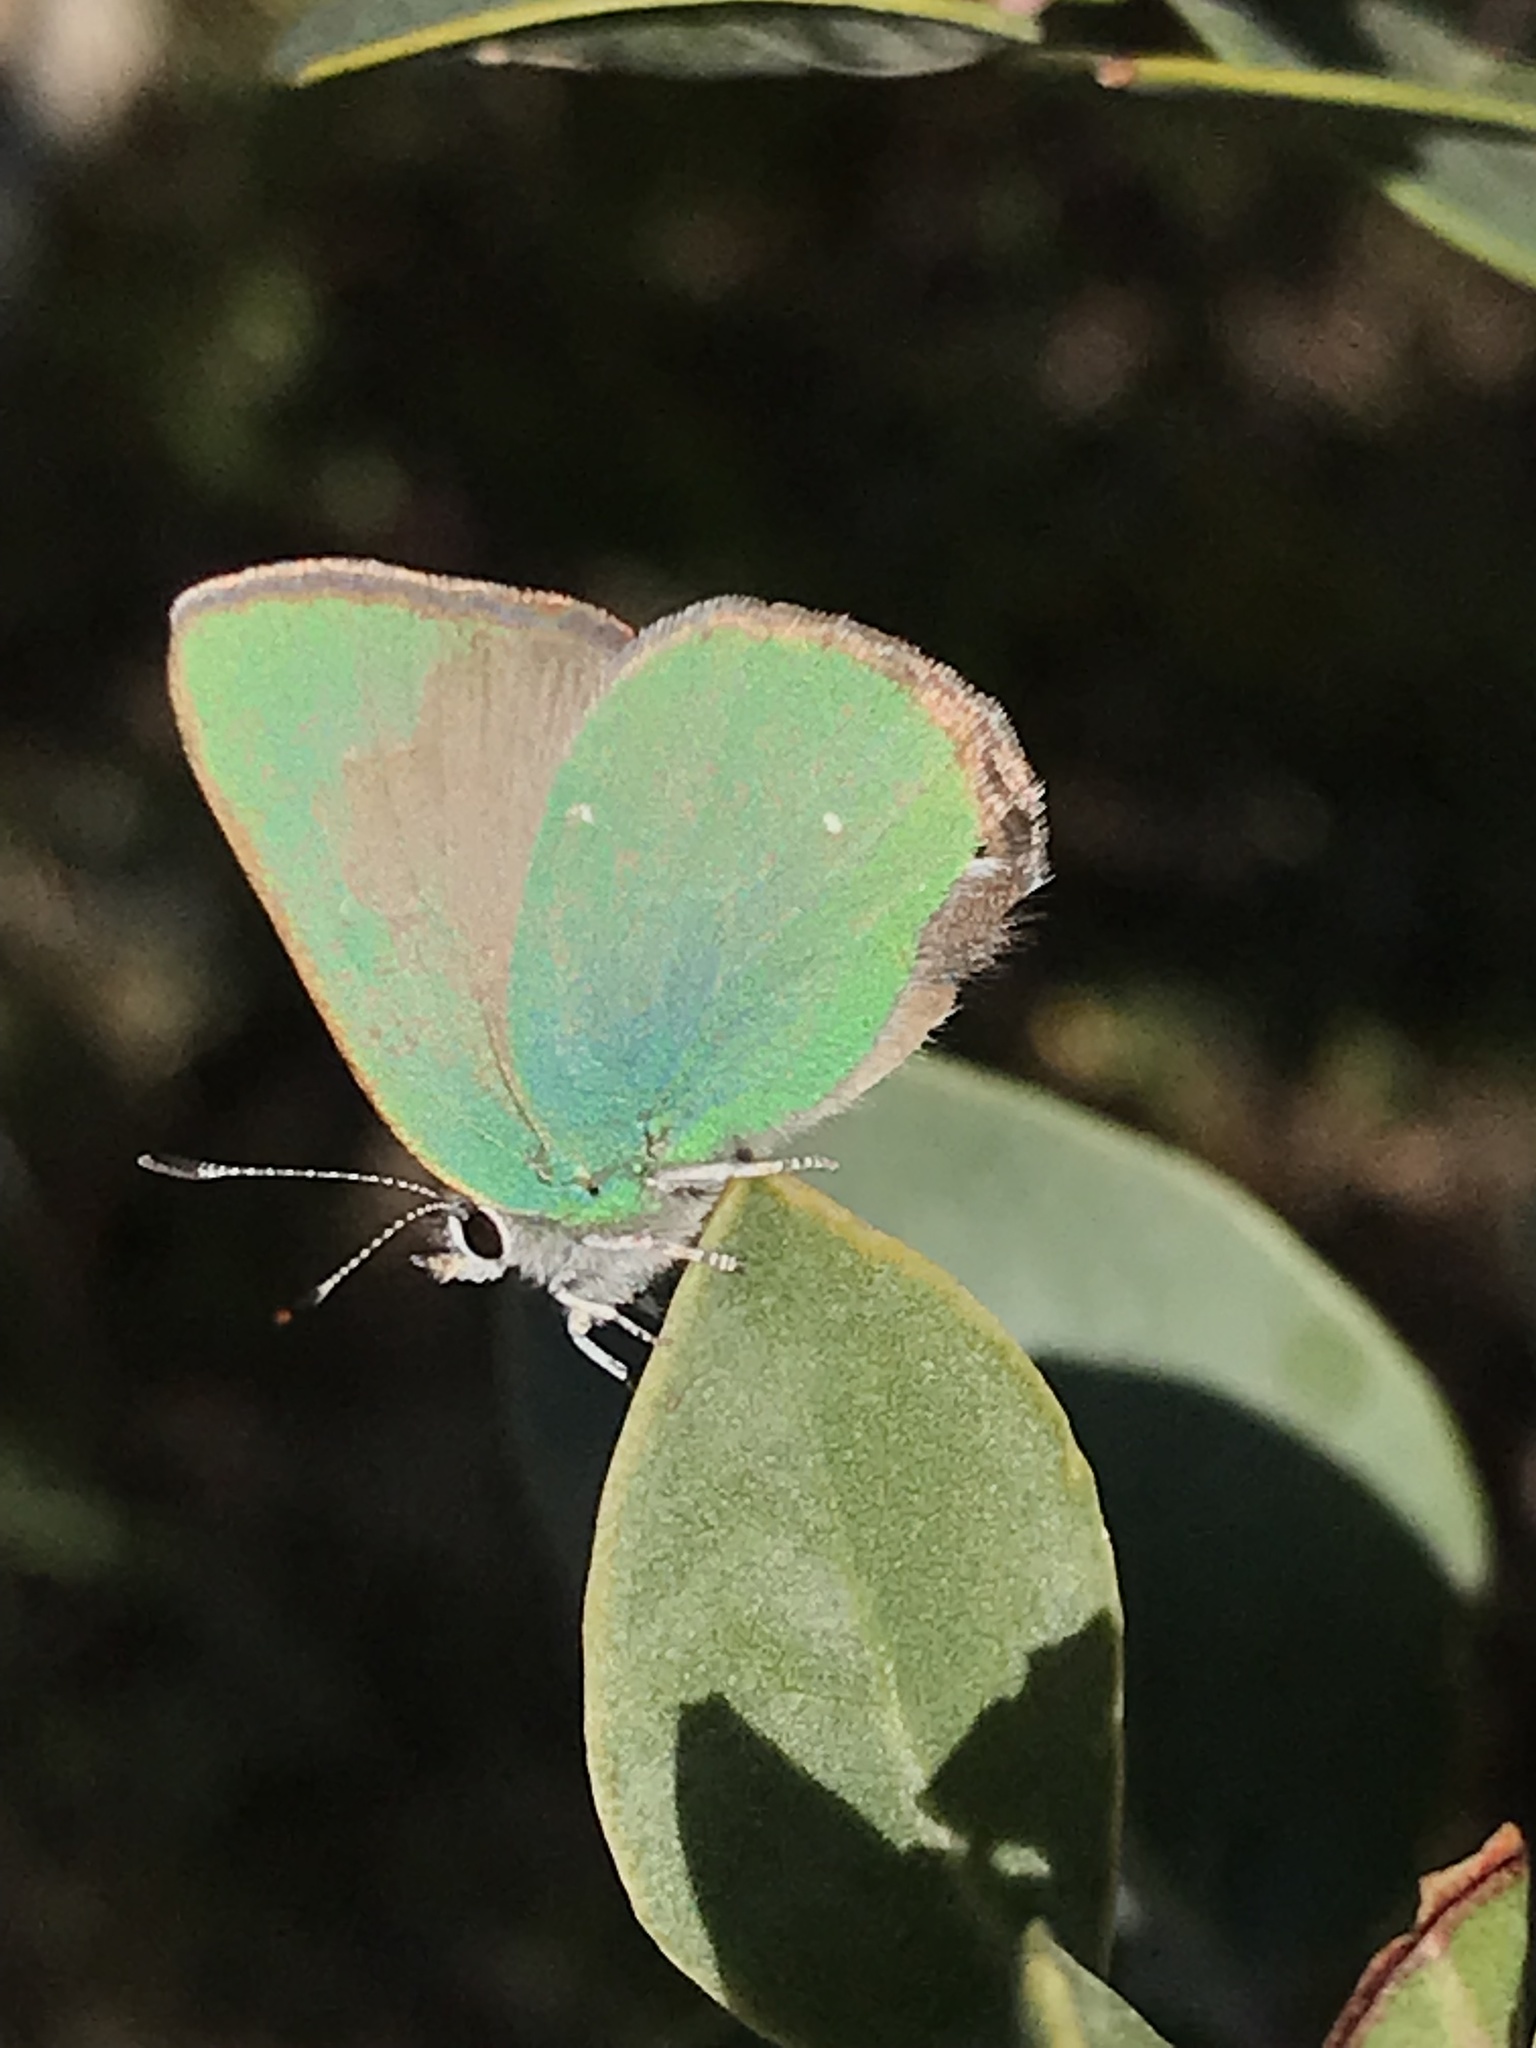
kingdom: Animalia
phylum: Arthropoda
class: Insecta
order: Lepidoptera
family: Lycaenidae
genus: Callophrys
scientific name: Callophrys dumetorum
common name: Bramble hairstreak
